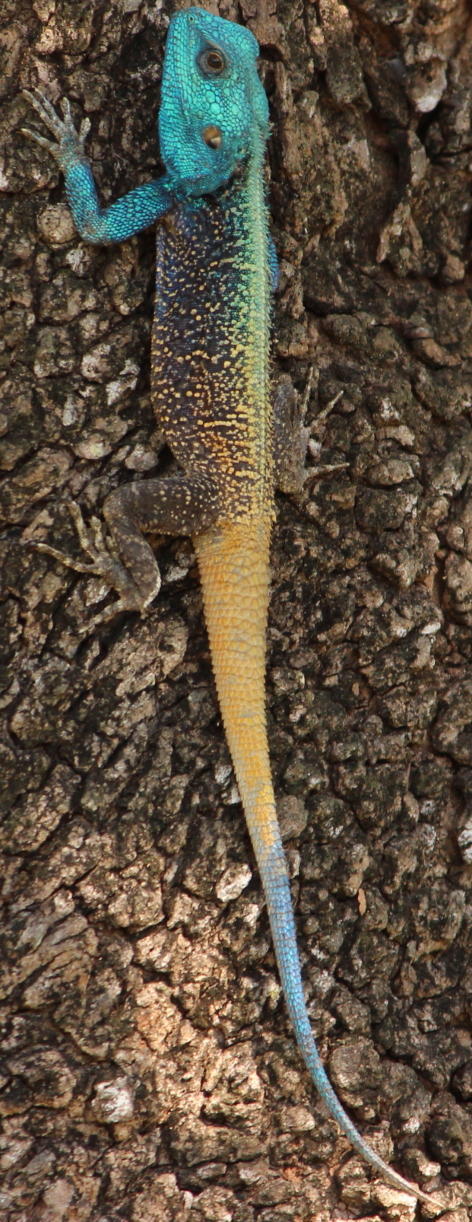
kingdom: Animalia
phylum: Chordata
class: Squamata
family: Agamidae
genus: Acanthocercus
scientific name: Acanthocercus atricollis
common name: Southern tree agama
